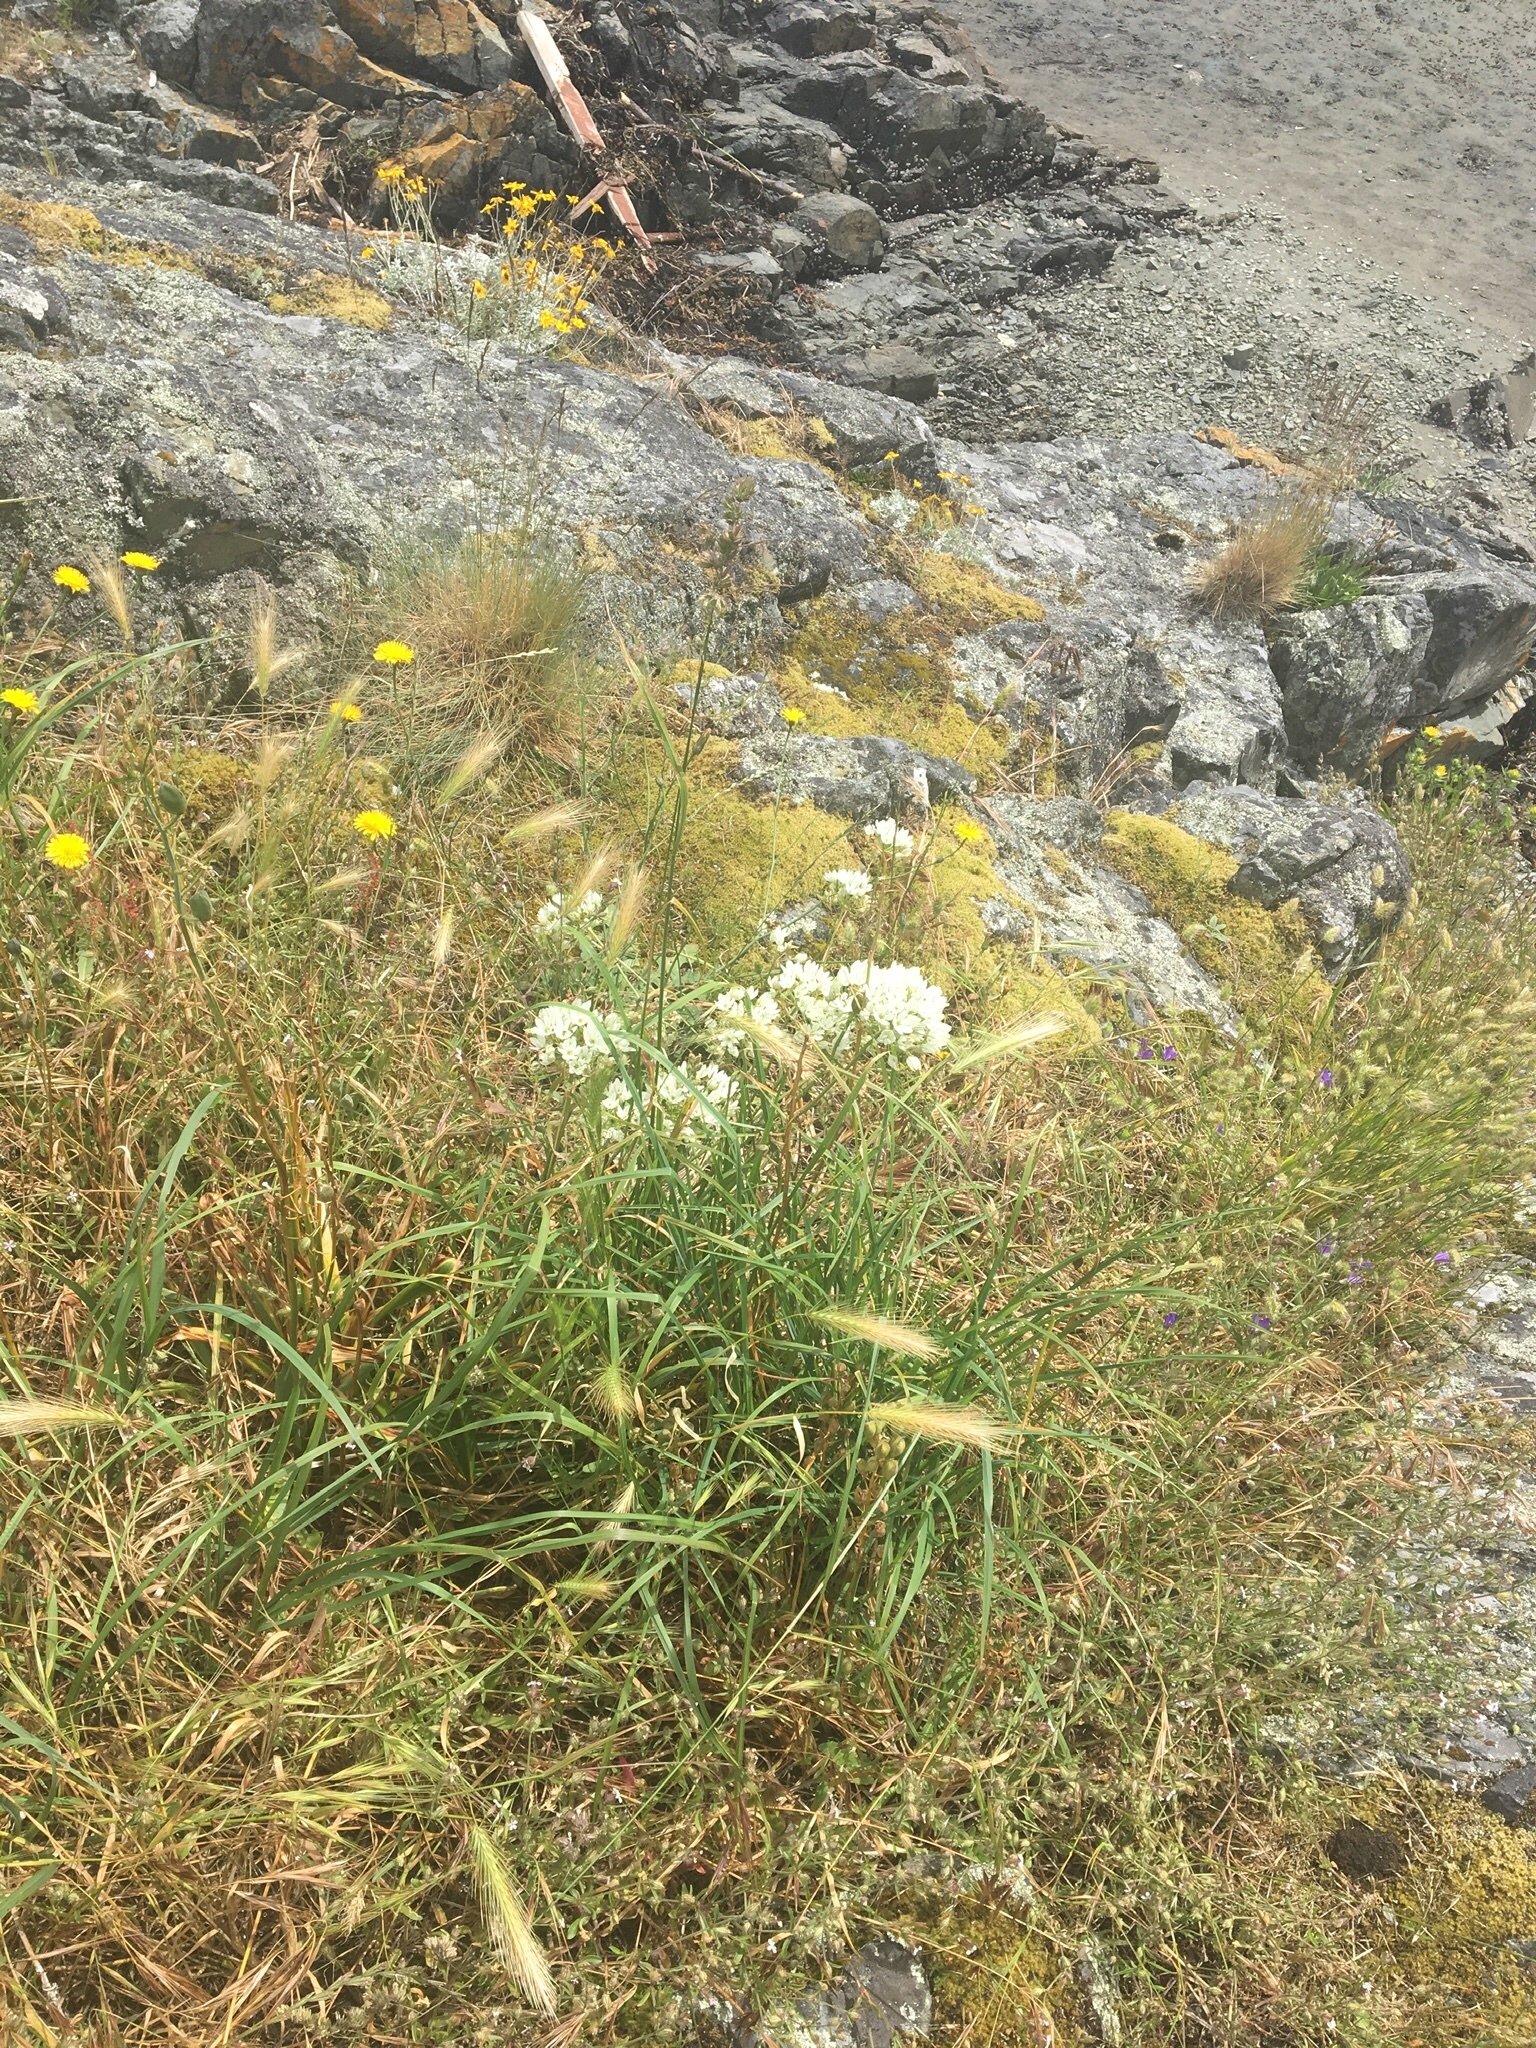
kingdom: Plantae
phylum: Tracheophyta
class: Liliopsida
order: Asparagales
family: Asparagaceae
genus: Triteleia
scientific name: Triteleia hyacinthina
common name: White brodiaea
